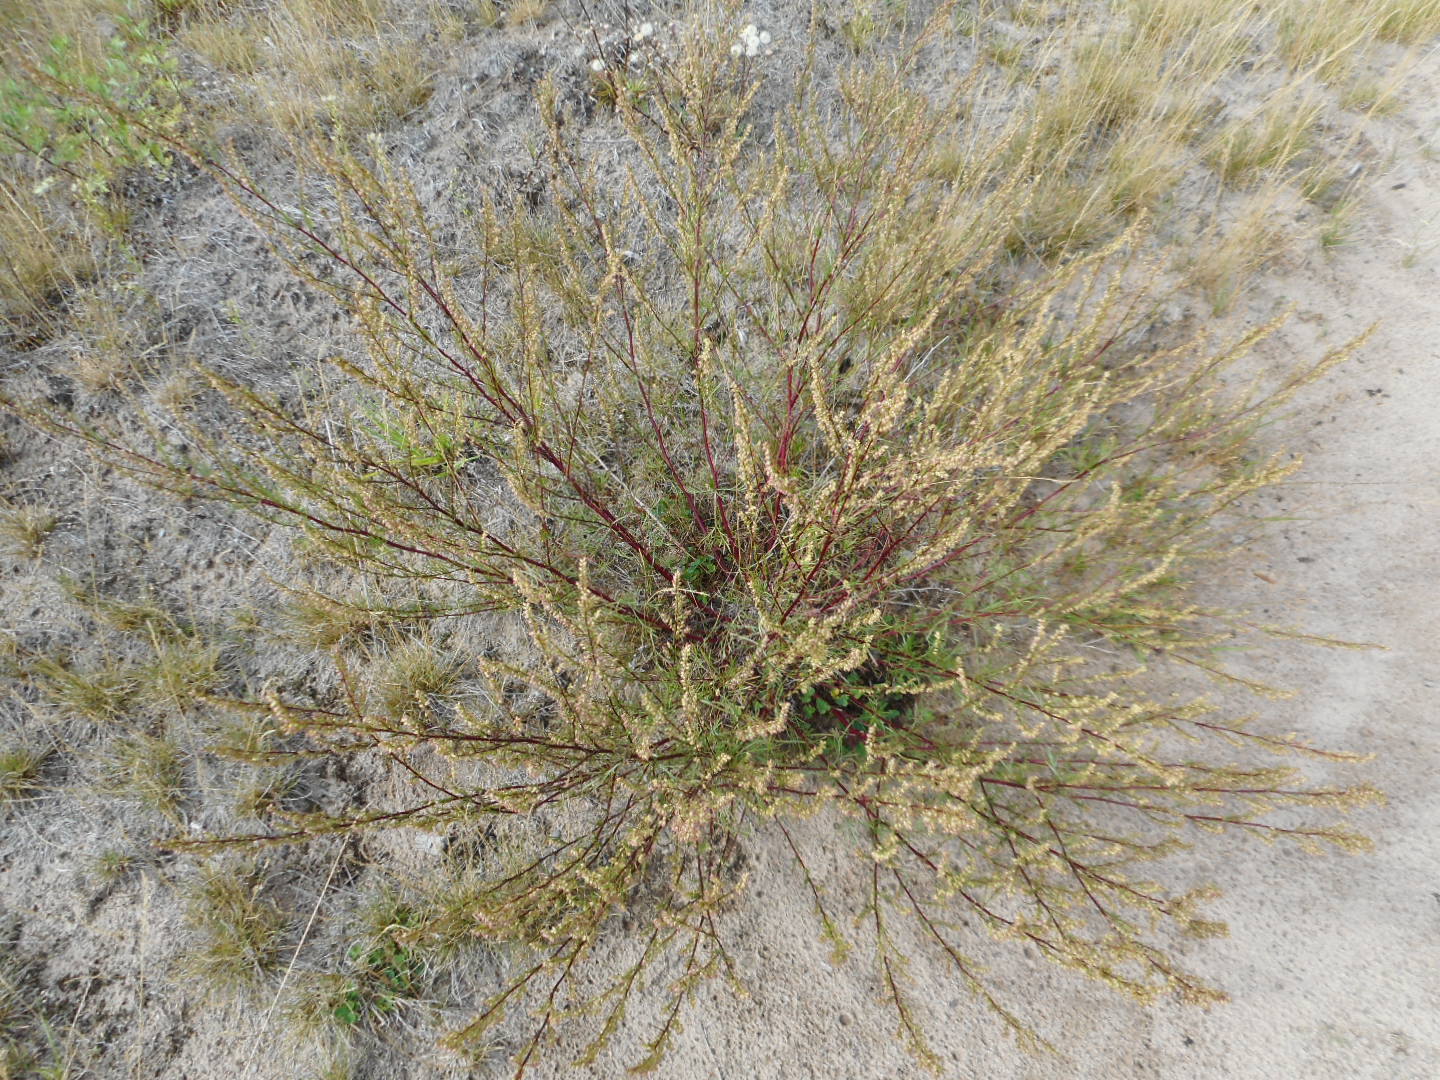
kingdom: Plantae
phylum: Tracheophyta
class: Magnoliopsida
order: Asterales
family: Asteraceae
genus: Artemisia
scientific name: Artemisia campestris
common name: Field wormwood
